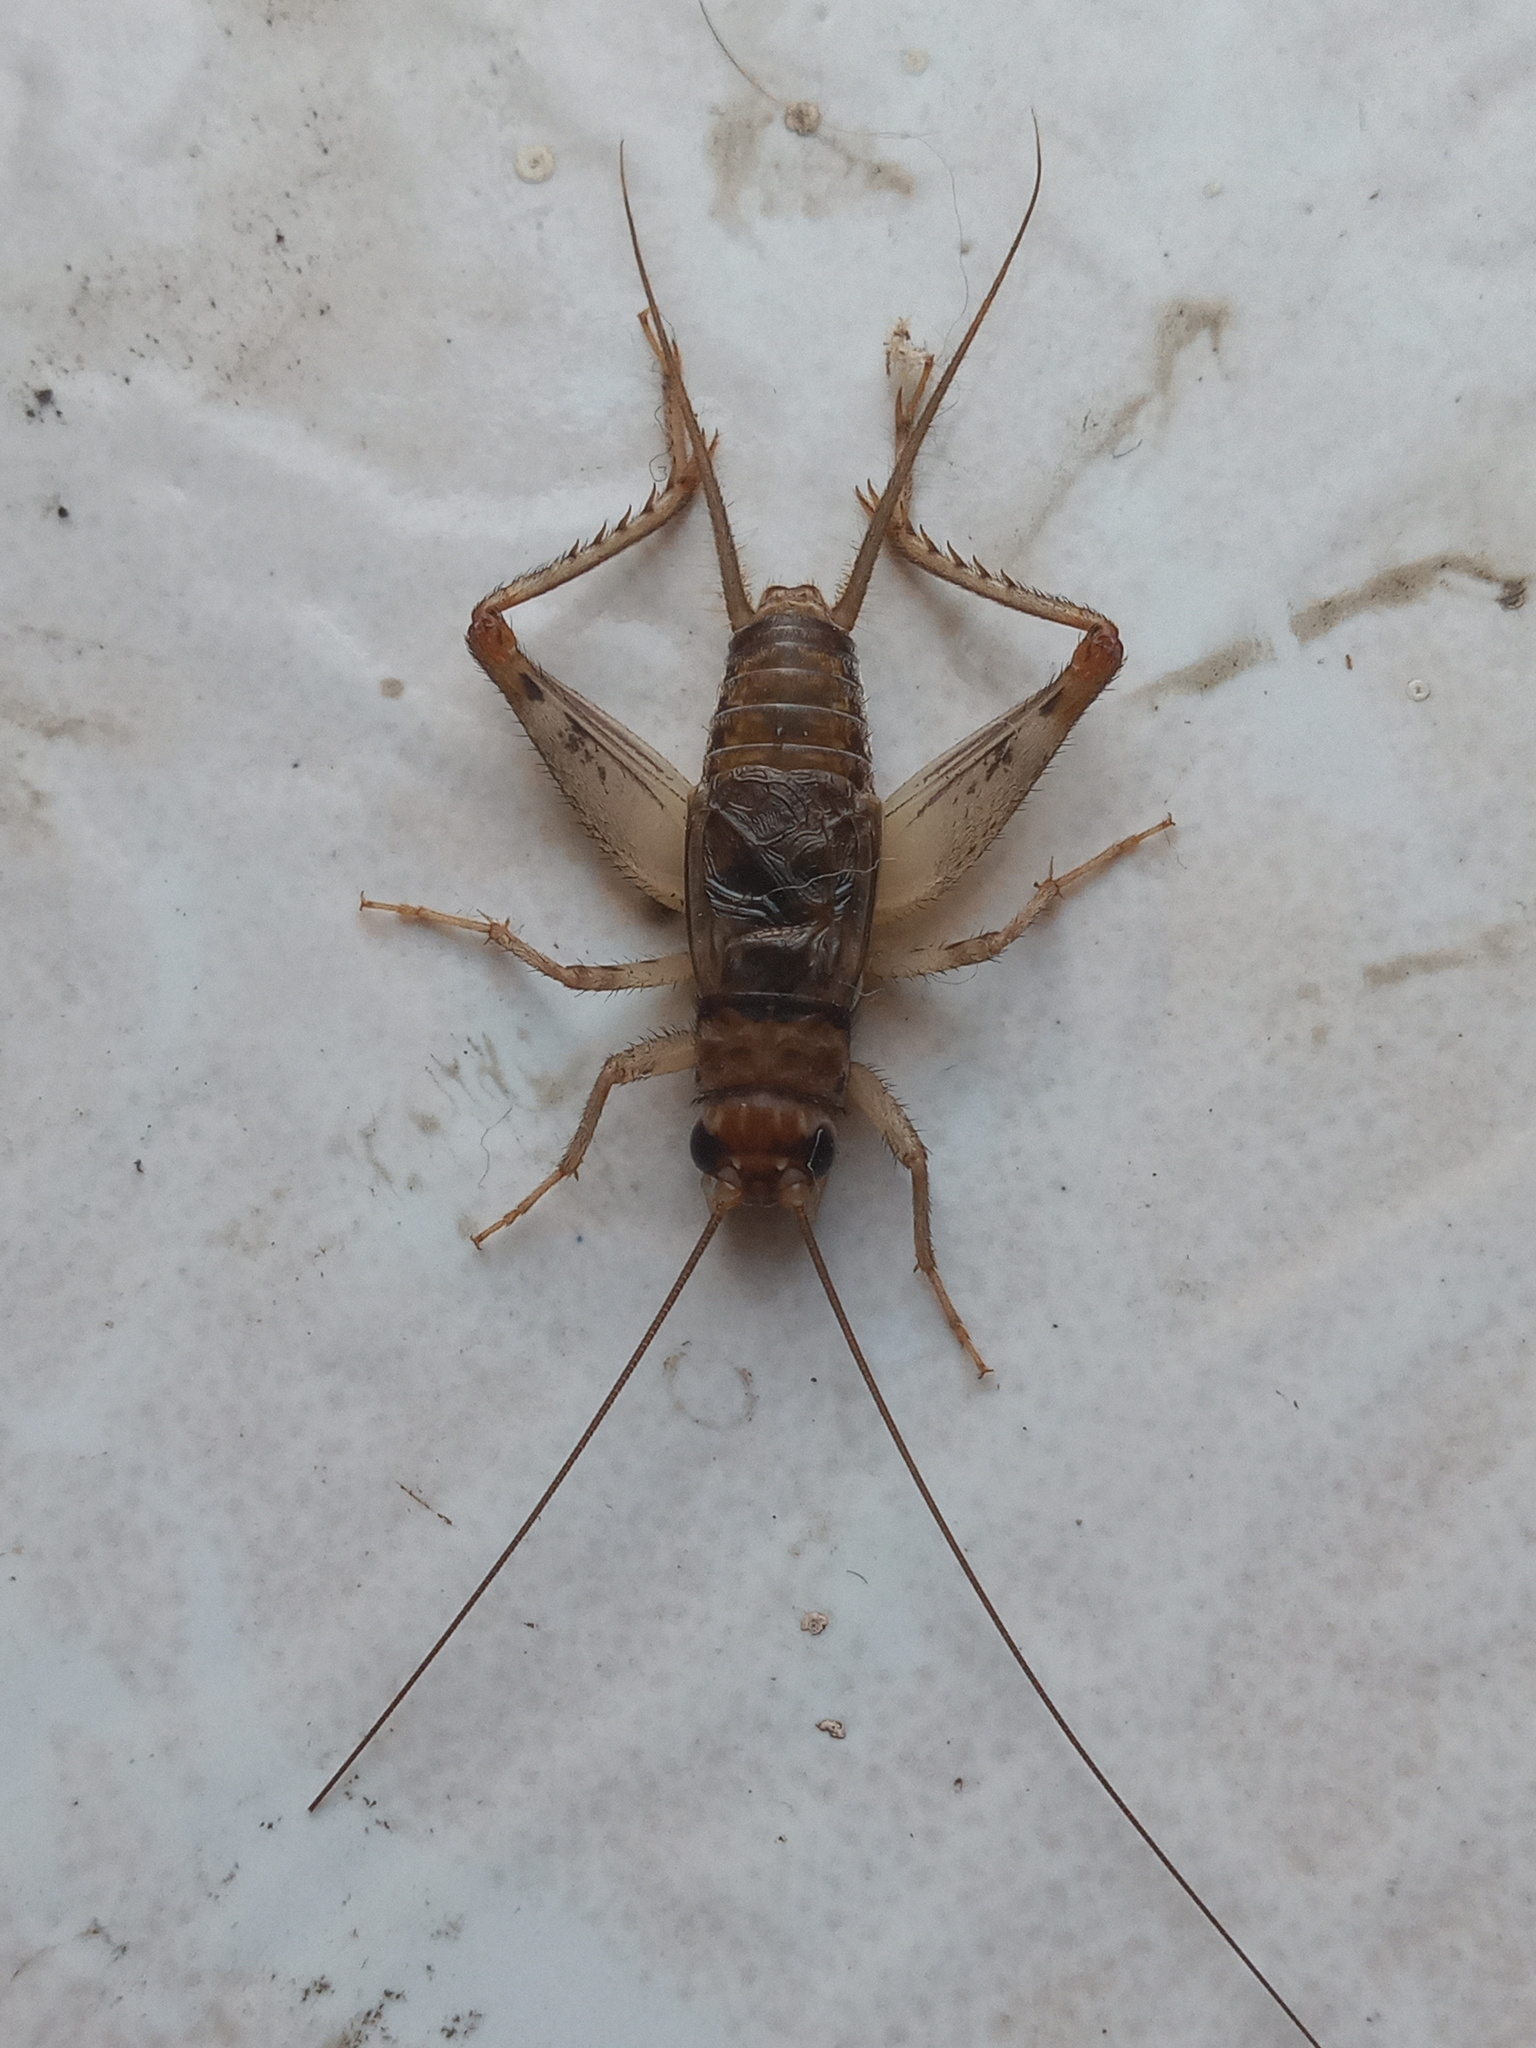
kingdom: Animalia
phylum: Arthropoda
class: Insecta
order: Orthoptera
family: Gryllidae
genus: Gryllodes
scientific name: Gryllodes sigillatus
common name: Tropical house cricket
